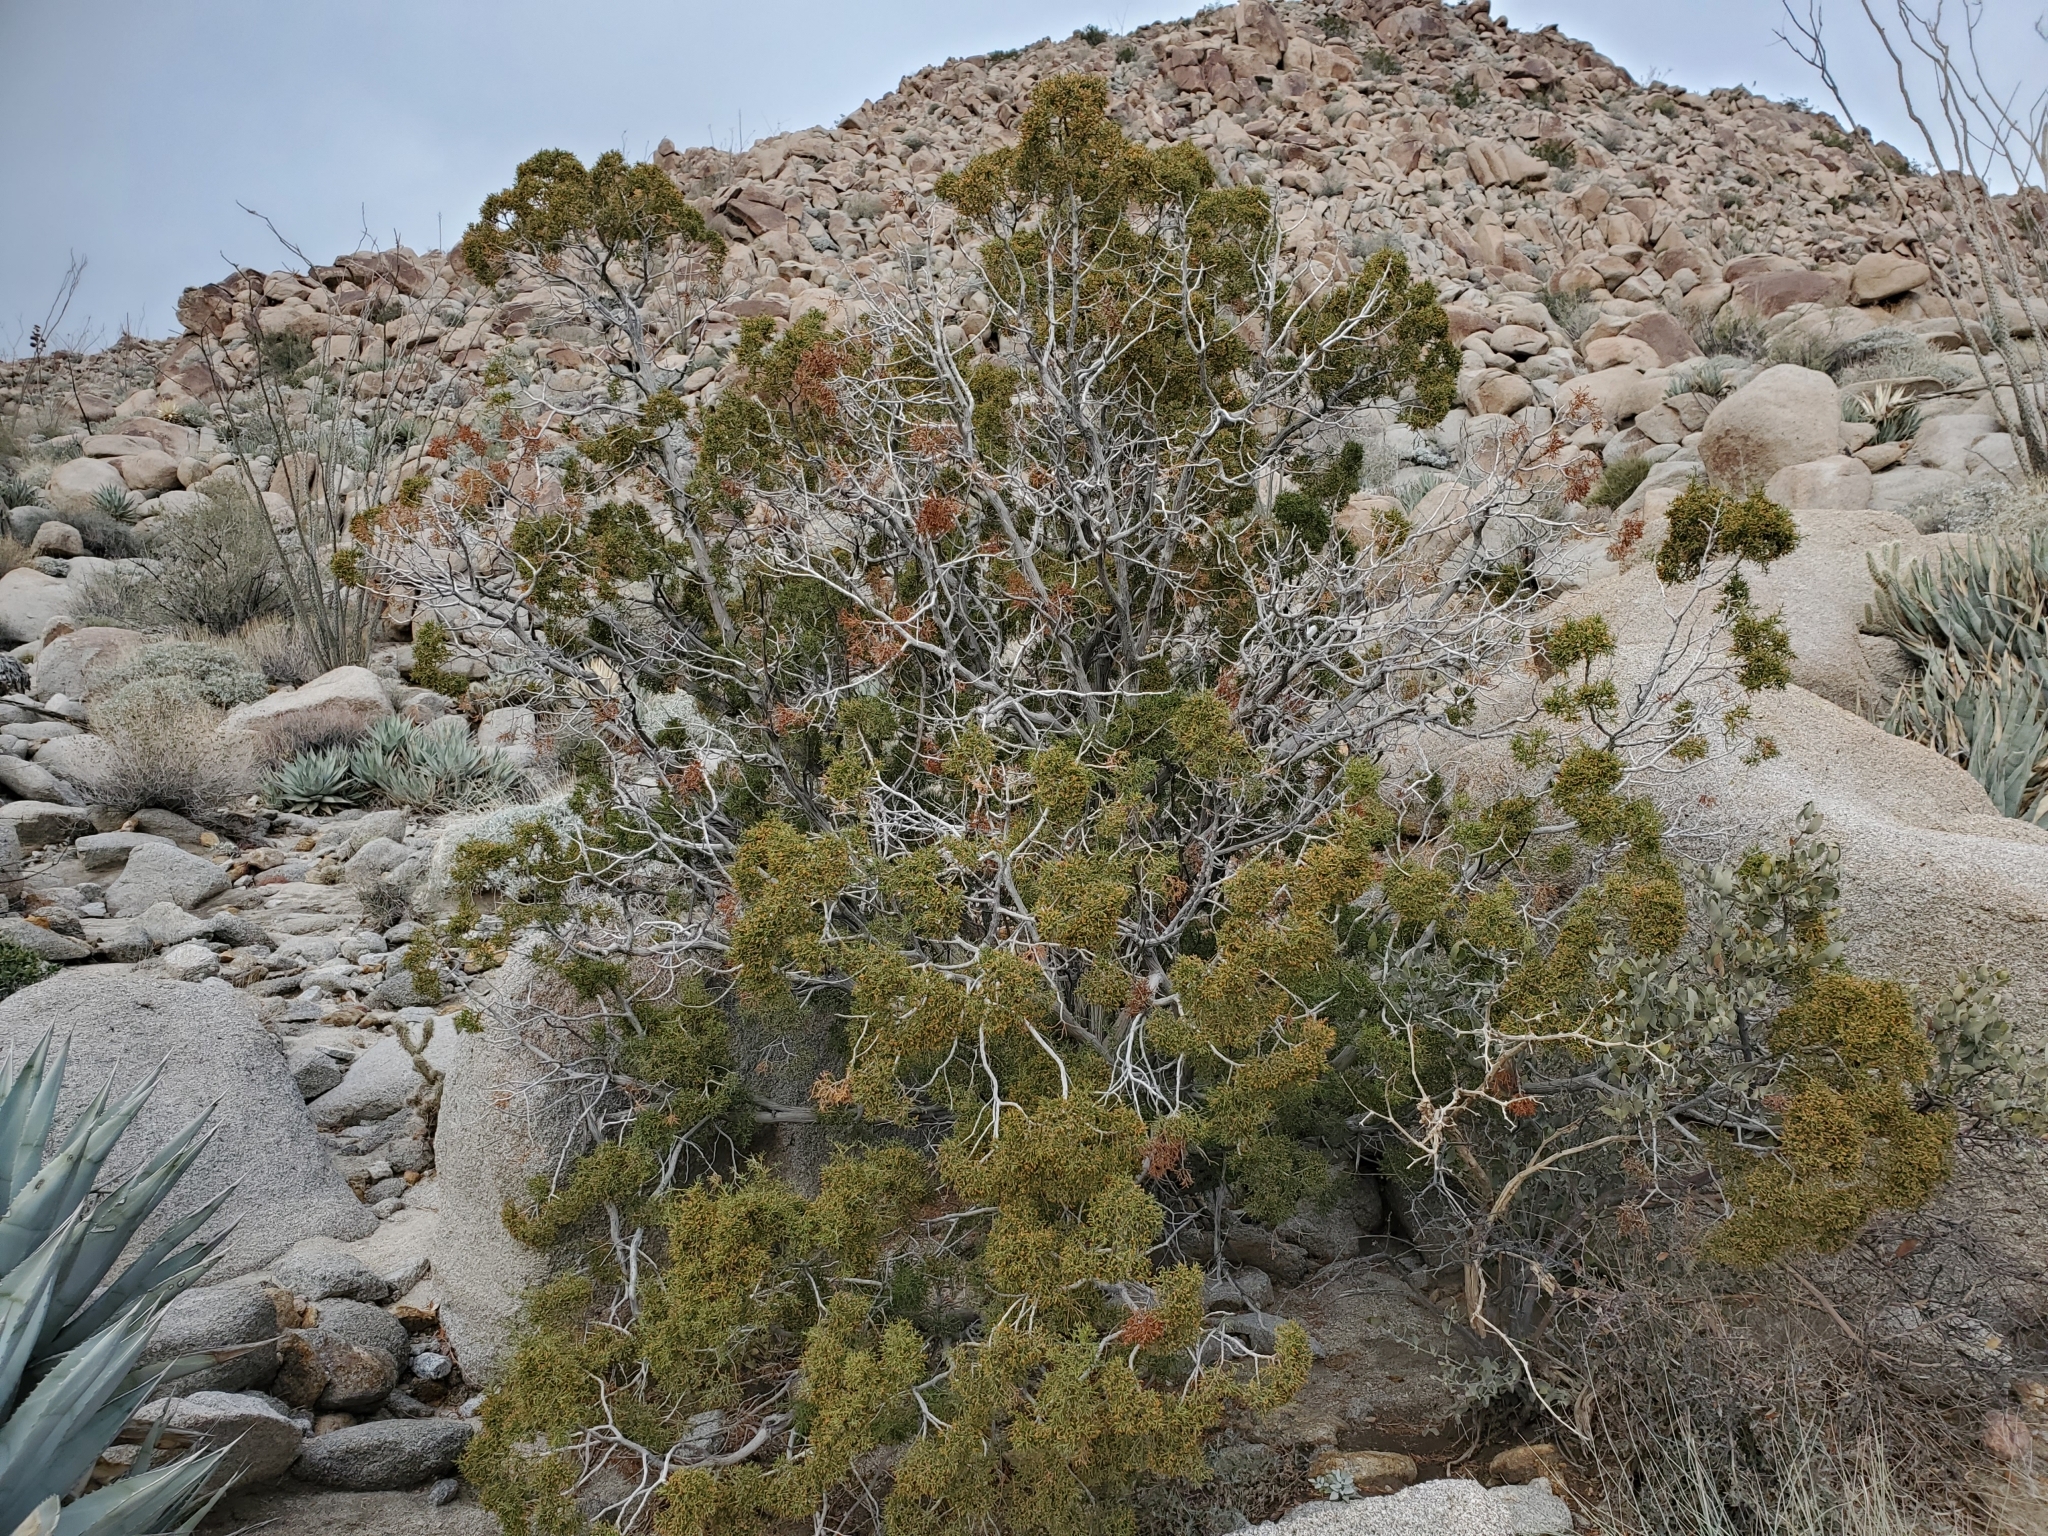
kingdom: Plantae
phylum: Tracheophyta
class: Pinopsida
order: Pinales
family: Cupressaceae
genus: Juniperus
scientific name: Juniperus californica
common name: California juniper
